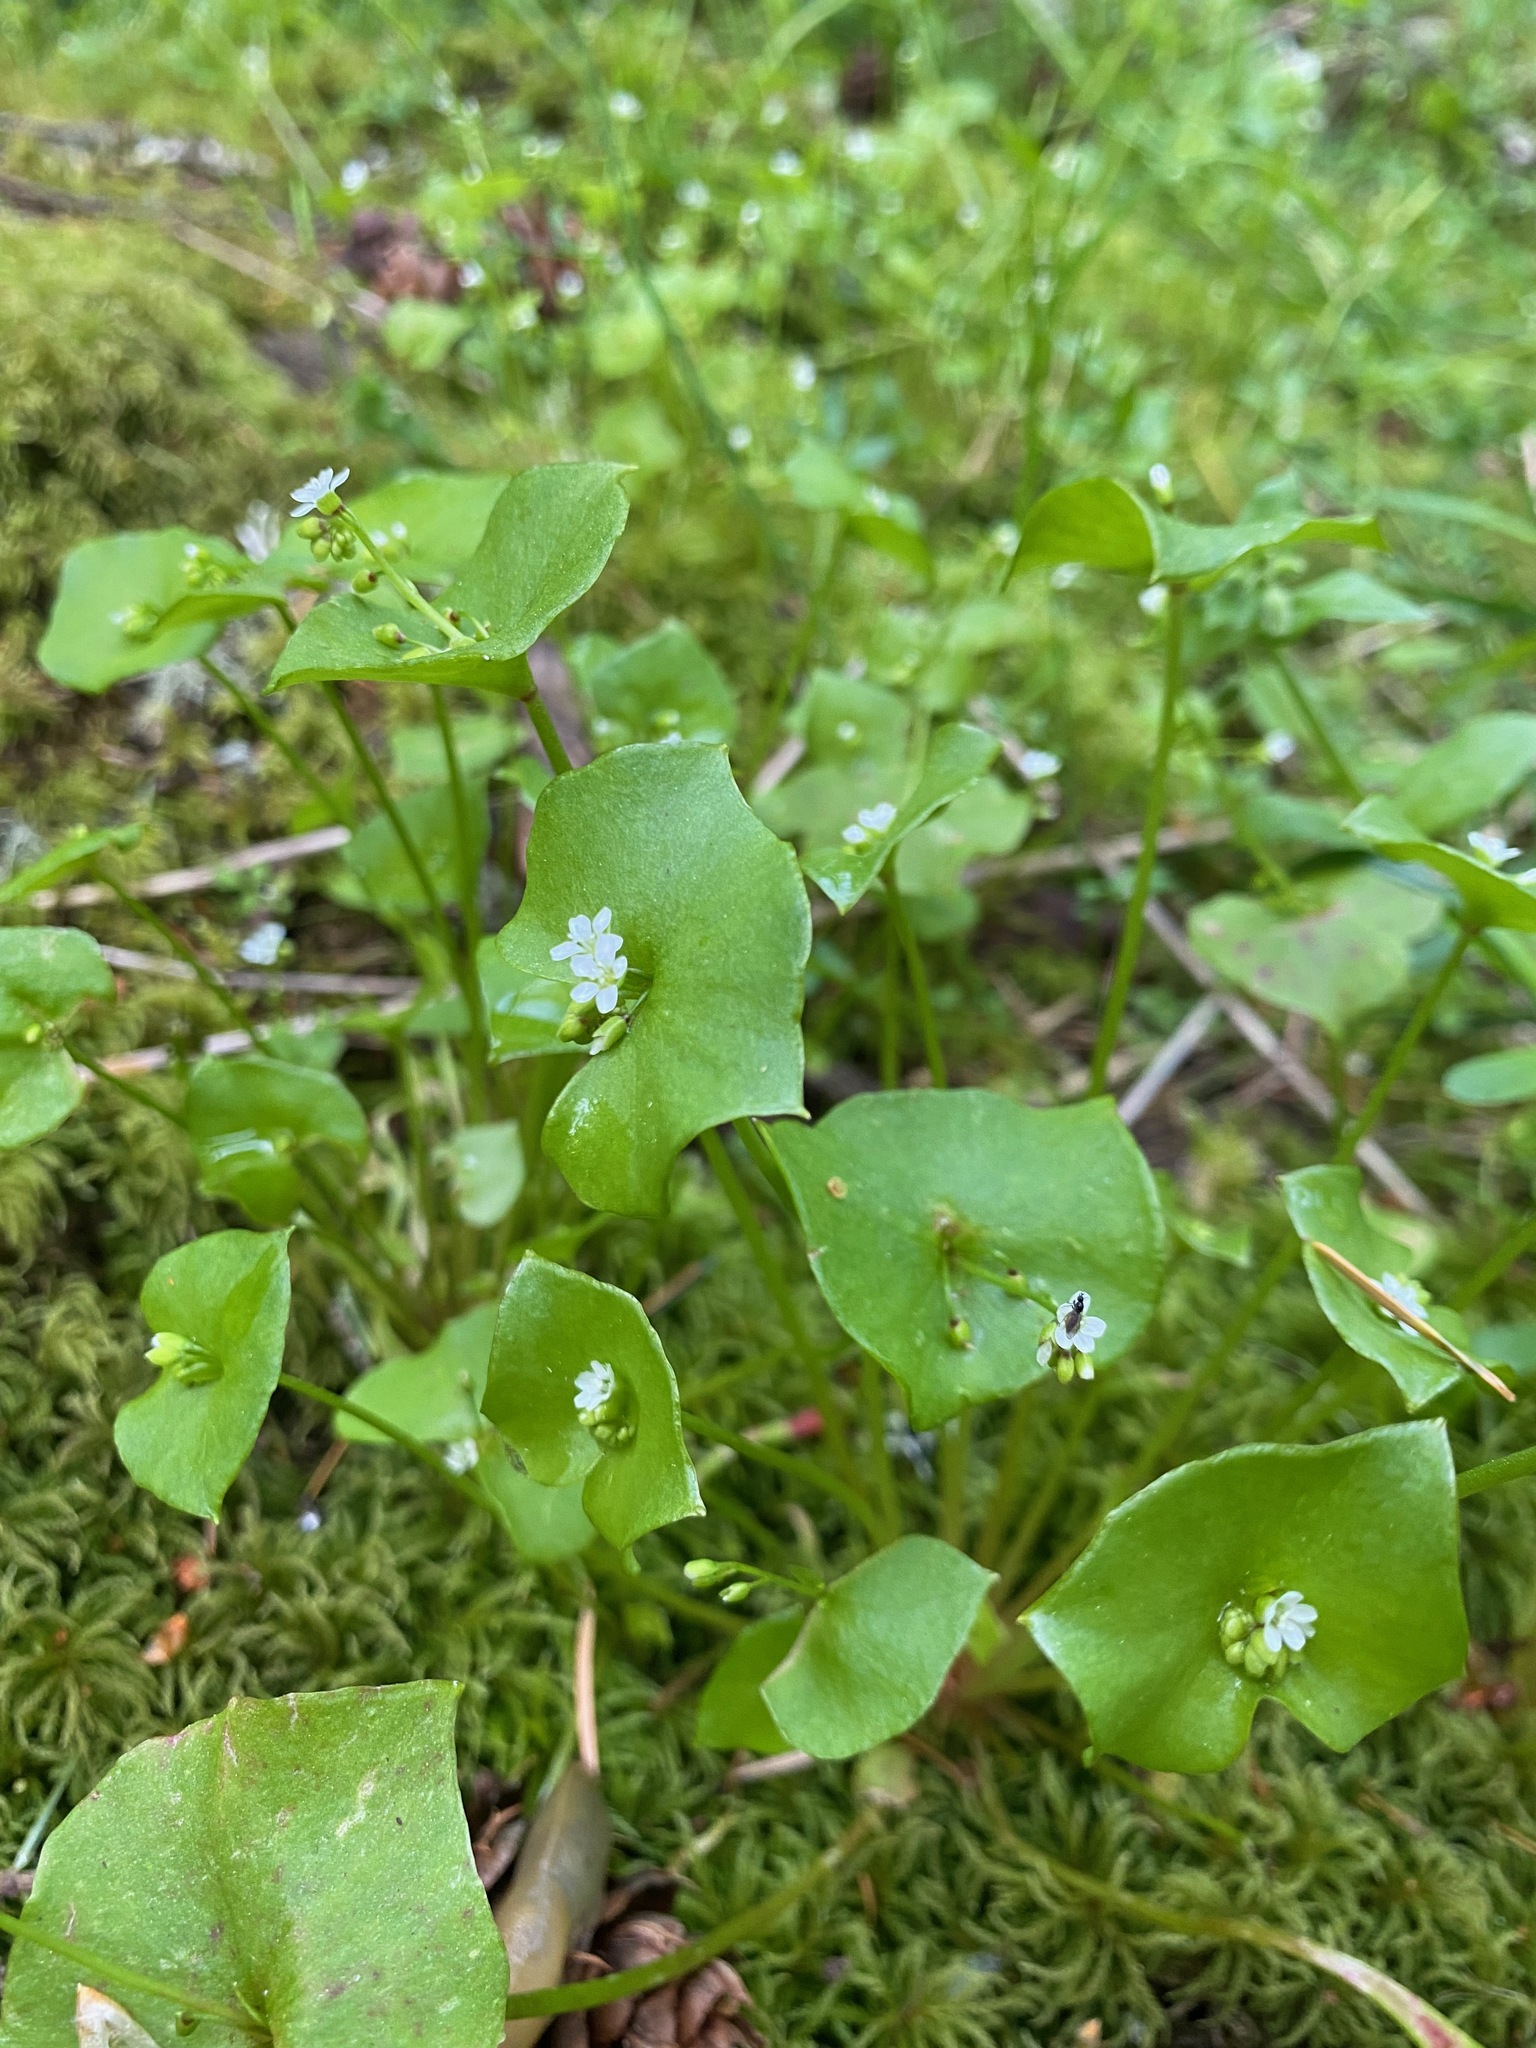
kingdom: Plantae
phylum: Tracheophyta
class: Magnoliopsida
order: Caryophyllales
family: Montiaceae
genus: Claytonia
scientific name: Claytonia perfoliata
